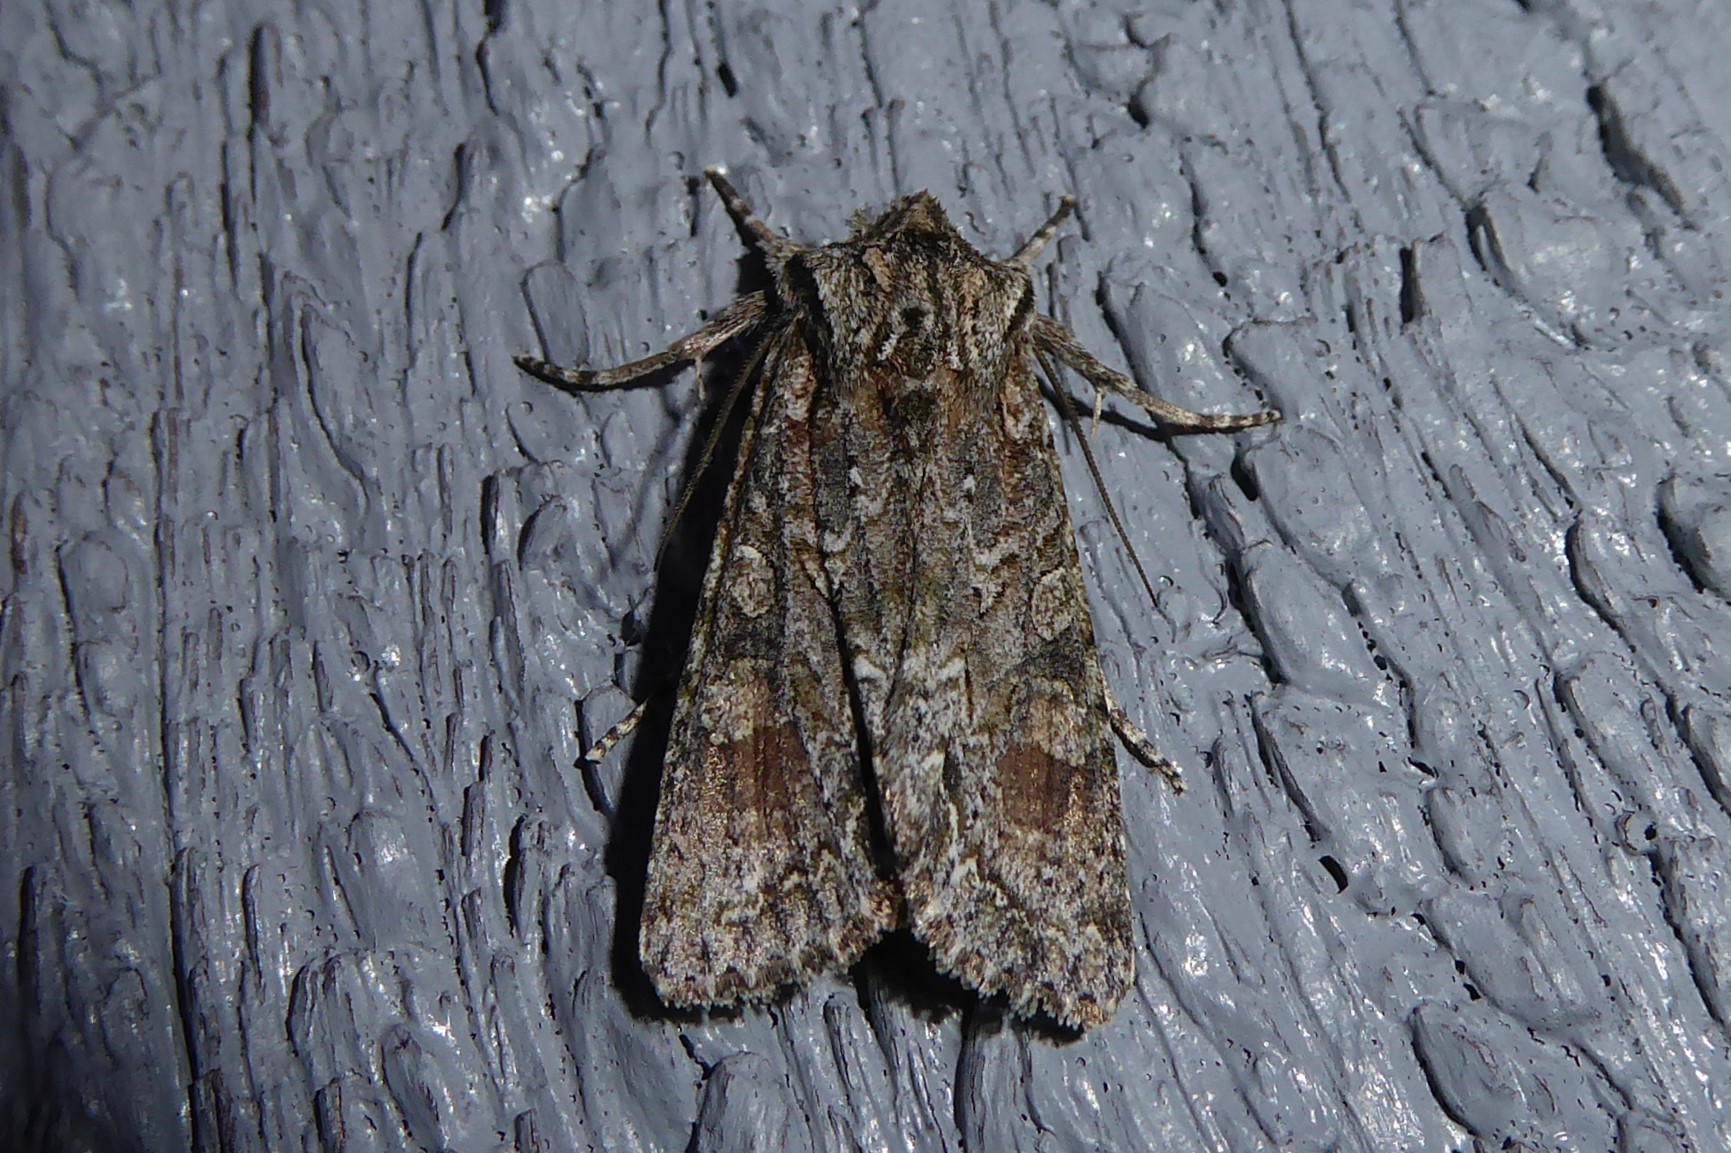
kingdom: Animalia
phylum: Arthropoda
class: Insecta
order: Lepidoptera
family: Noctuidae
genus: Ichneutica
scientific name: Ichneutica mutans
